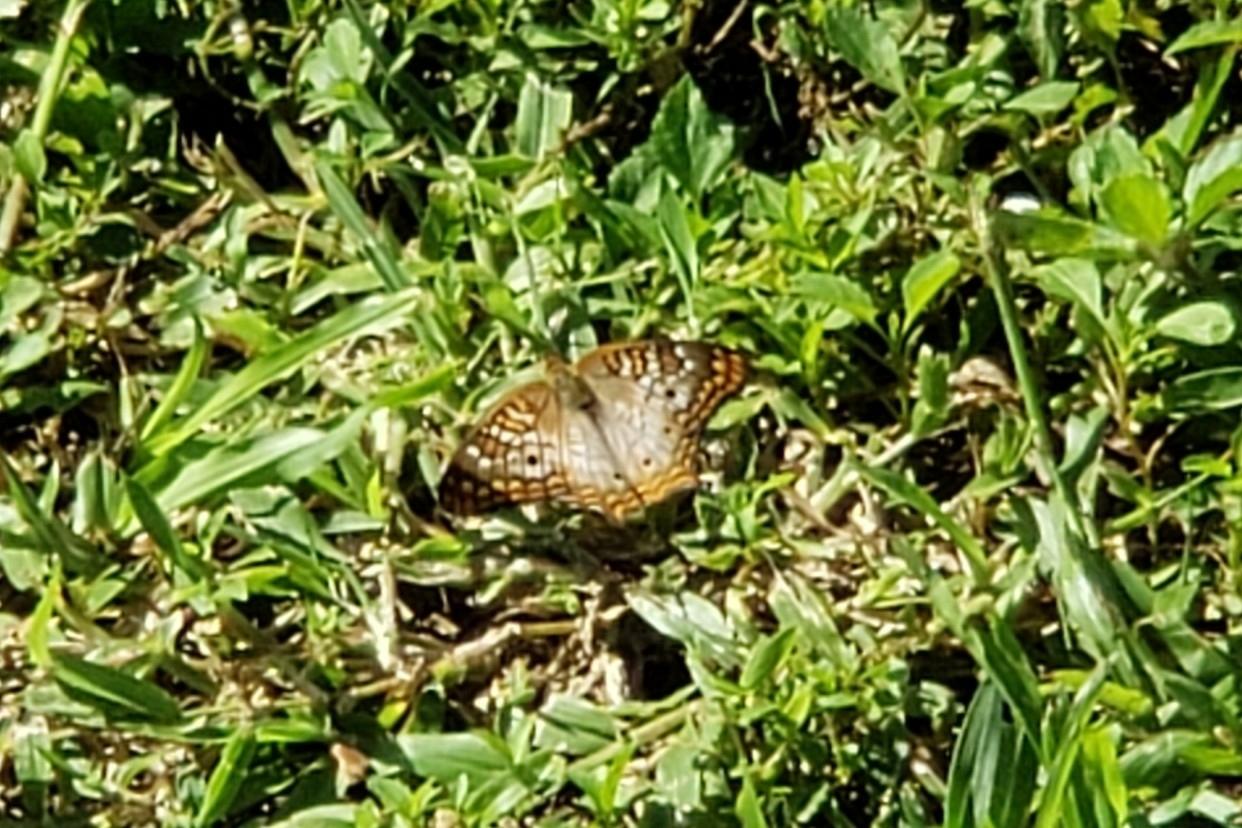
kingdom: Animalia
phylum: Arthropoda
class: Insecta
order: Lepidoptera
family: Nymphalidae
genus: Anartia
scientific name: Anartia jatrophae
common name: White peacock
